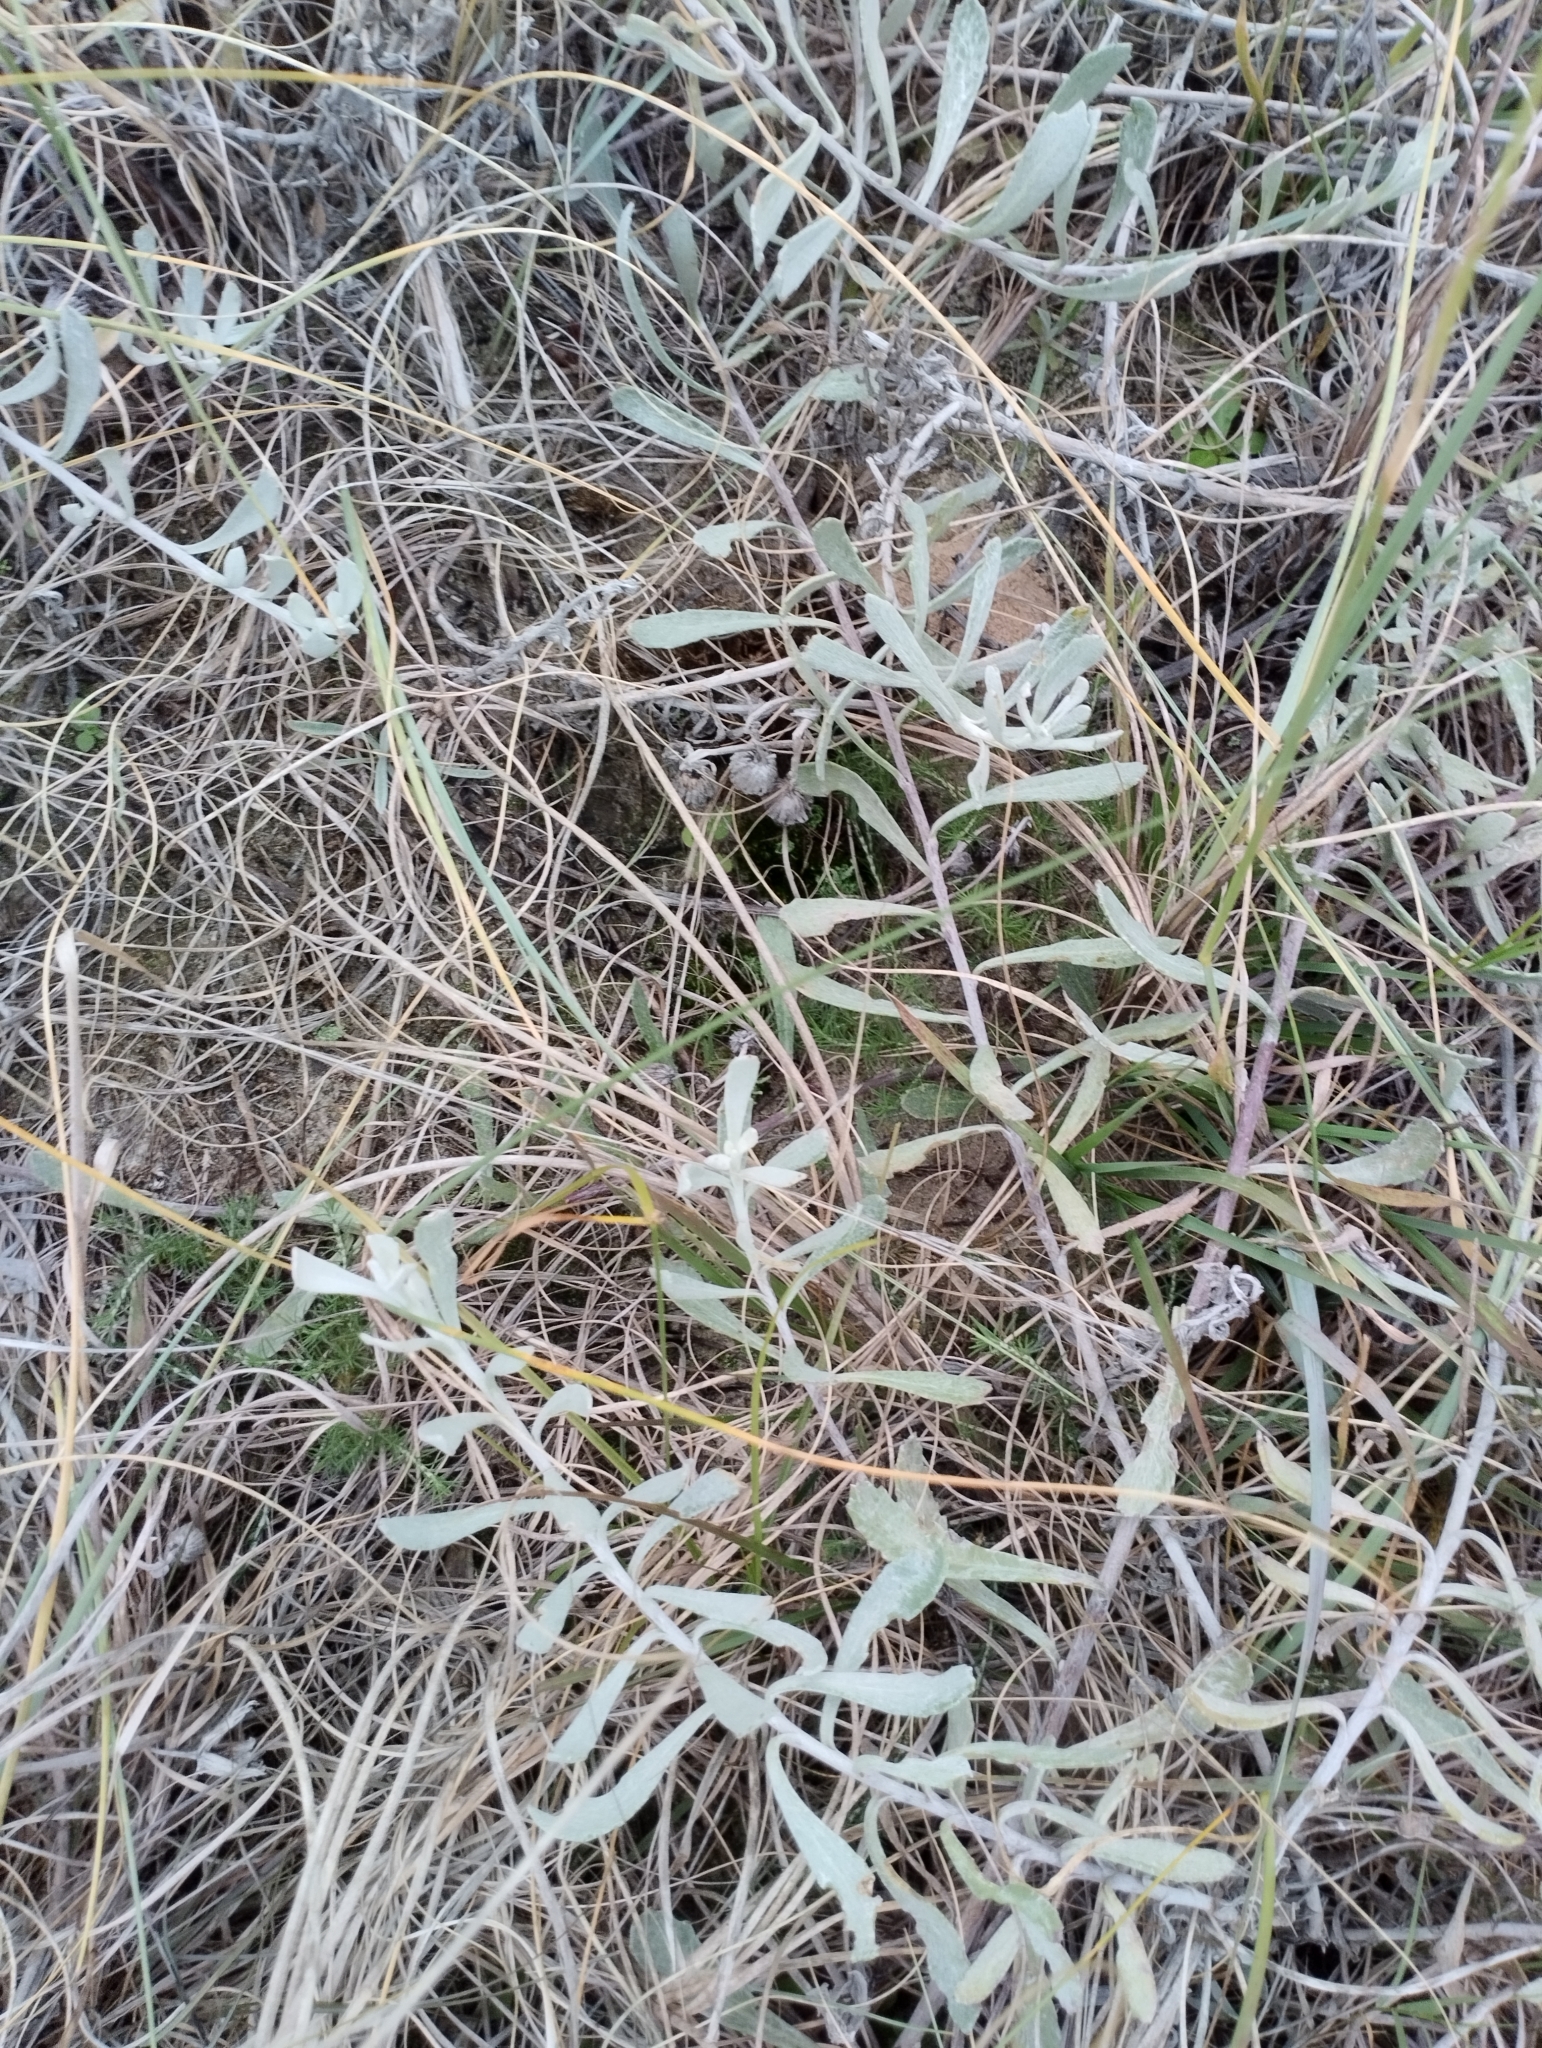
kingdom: Plantae
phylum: Tracheophyta
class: Magnoliopsida
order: Asterales
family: Asteraceae
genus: Senecio
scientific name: Senecio crassiflorus
